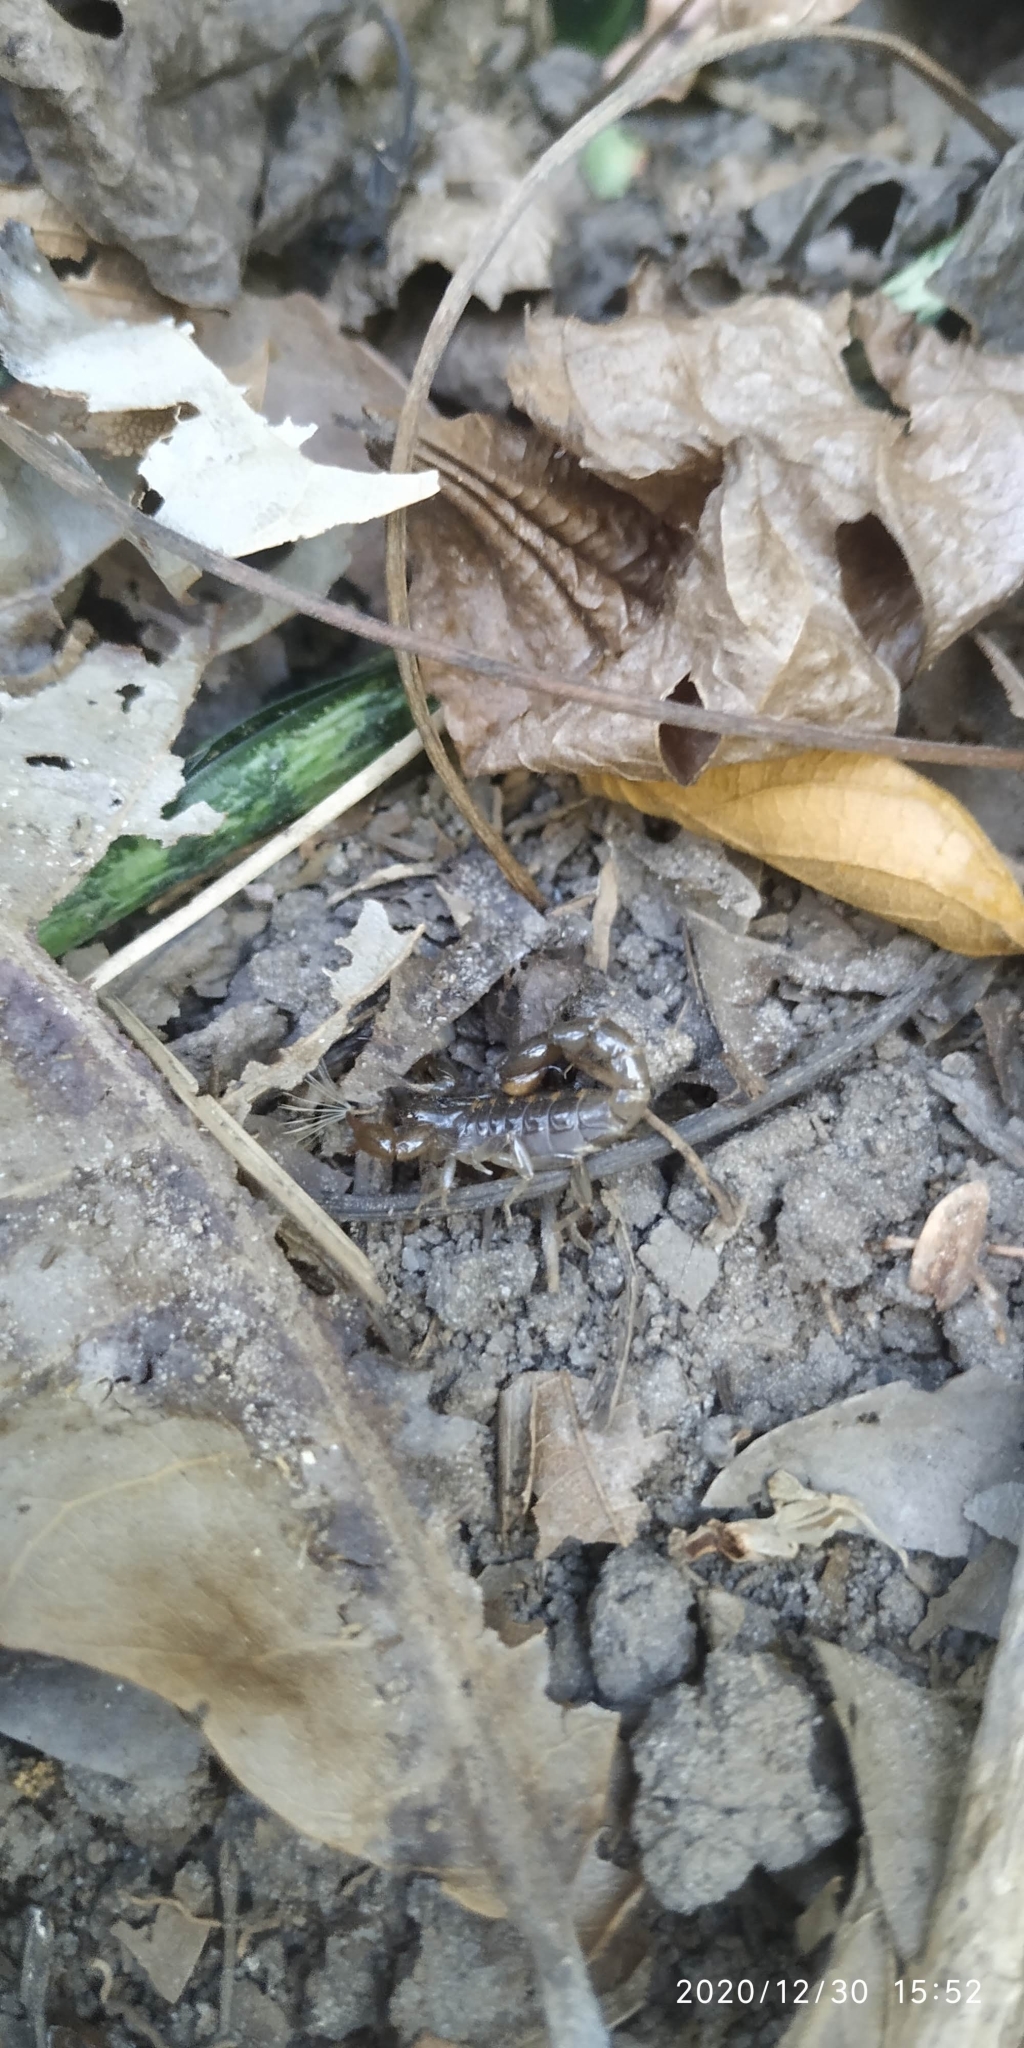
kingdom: Animalia
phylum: Arthropoda
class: Arachnida
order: Scorpiones
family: Bothriuridae
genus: Bothriurus
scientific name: Bothriurus asper
